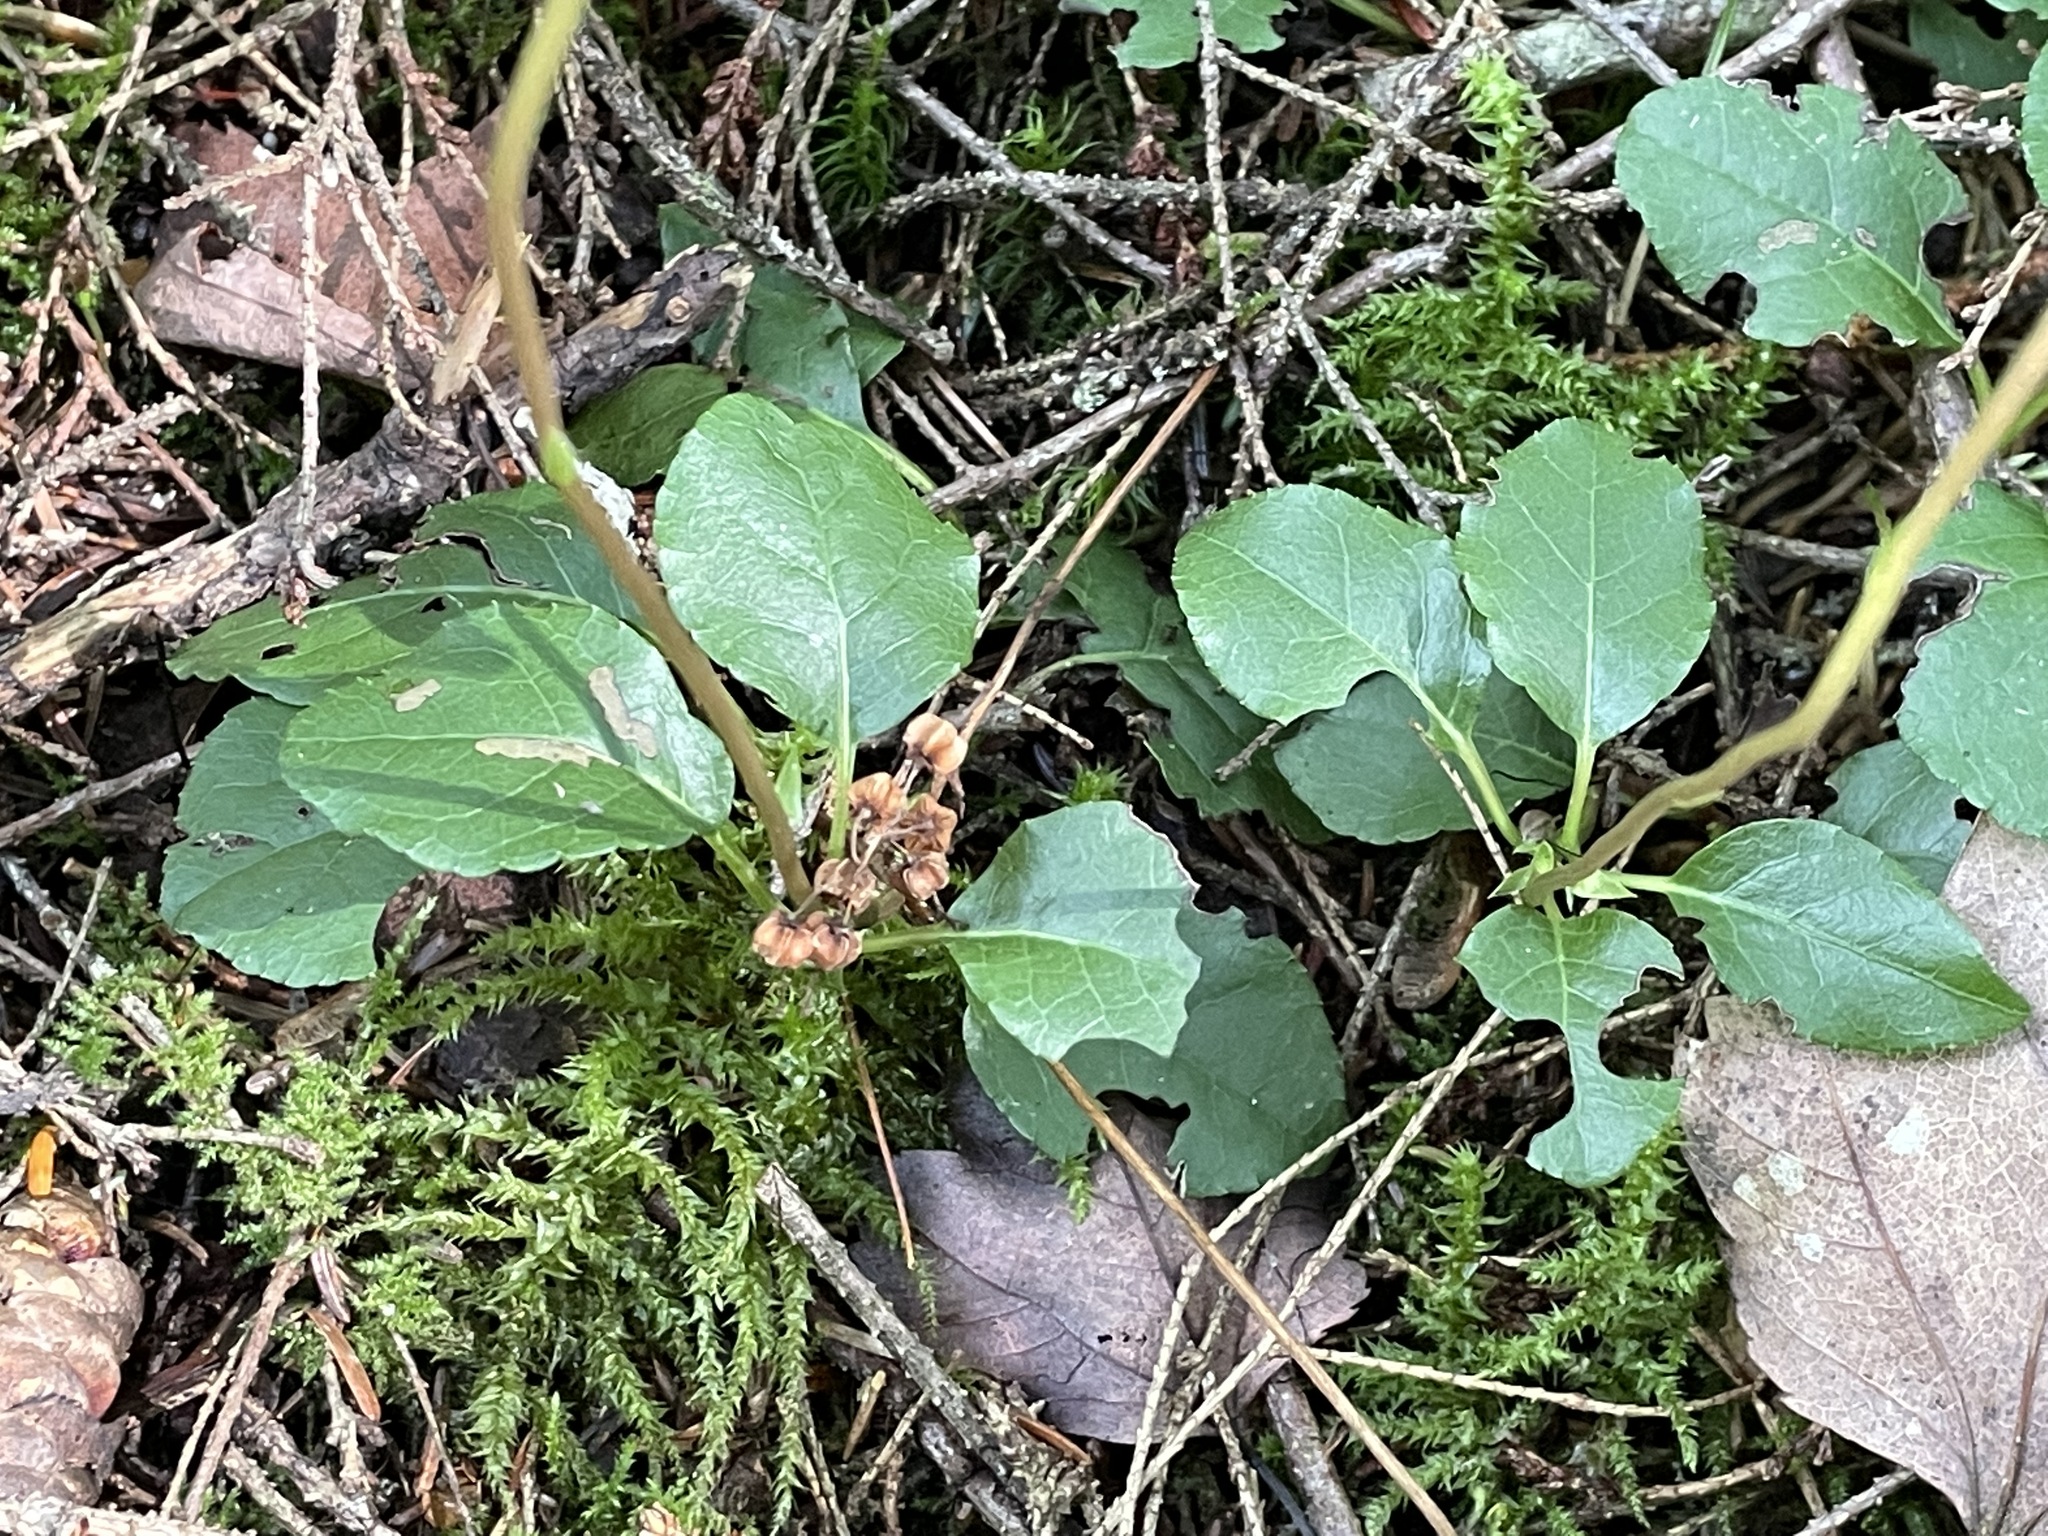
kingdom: Plantae
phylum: Tracheophyta
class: Magnoliopsida
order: Ericales
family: Ericaceae
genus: Orthilia
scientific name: Orthilia secunda
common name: One-sided orthilia
